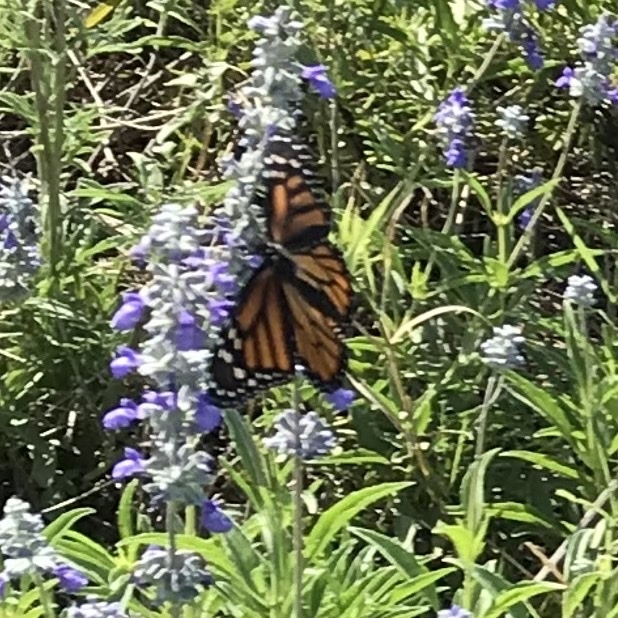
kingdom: Animalia
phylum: Arthropoda
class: Insecta
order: Lepidoptera
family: Nymphalidae
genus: Danaus
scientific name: Danaus plexippus
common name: Monarch
